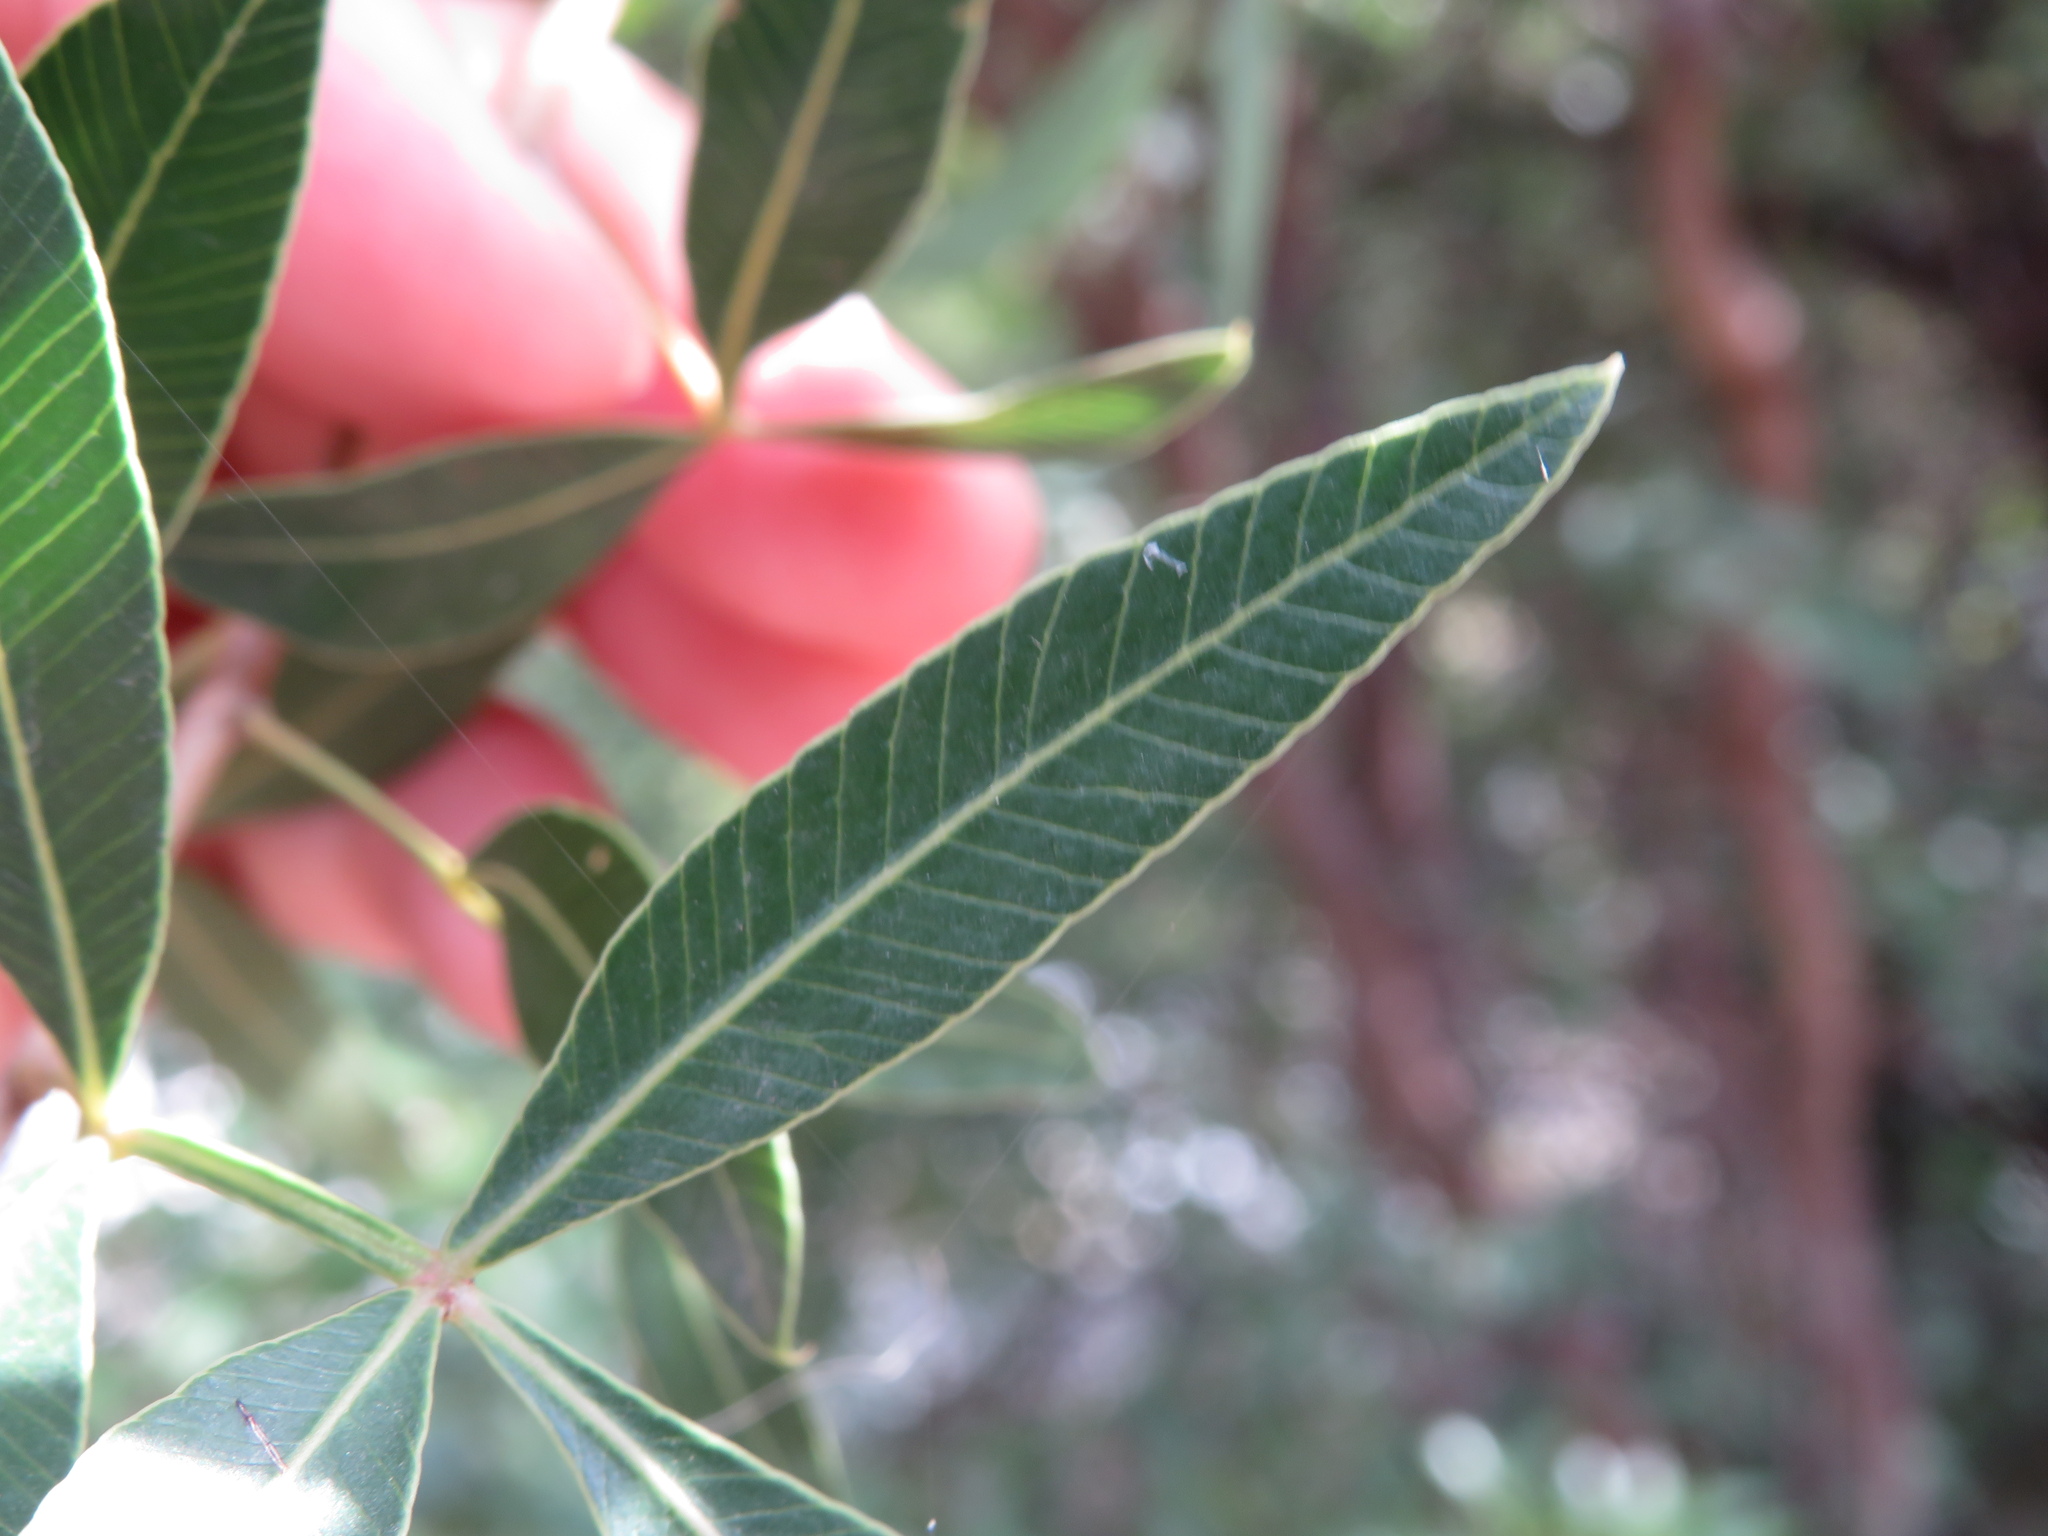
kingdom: Plantae
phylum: Tracheophyta
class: Magnoliopsida
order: Sapindales
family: Anacardiaceae
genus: Lithraea
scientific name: Lithraea molleoides
